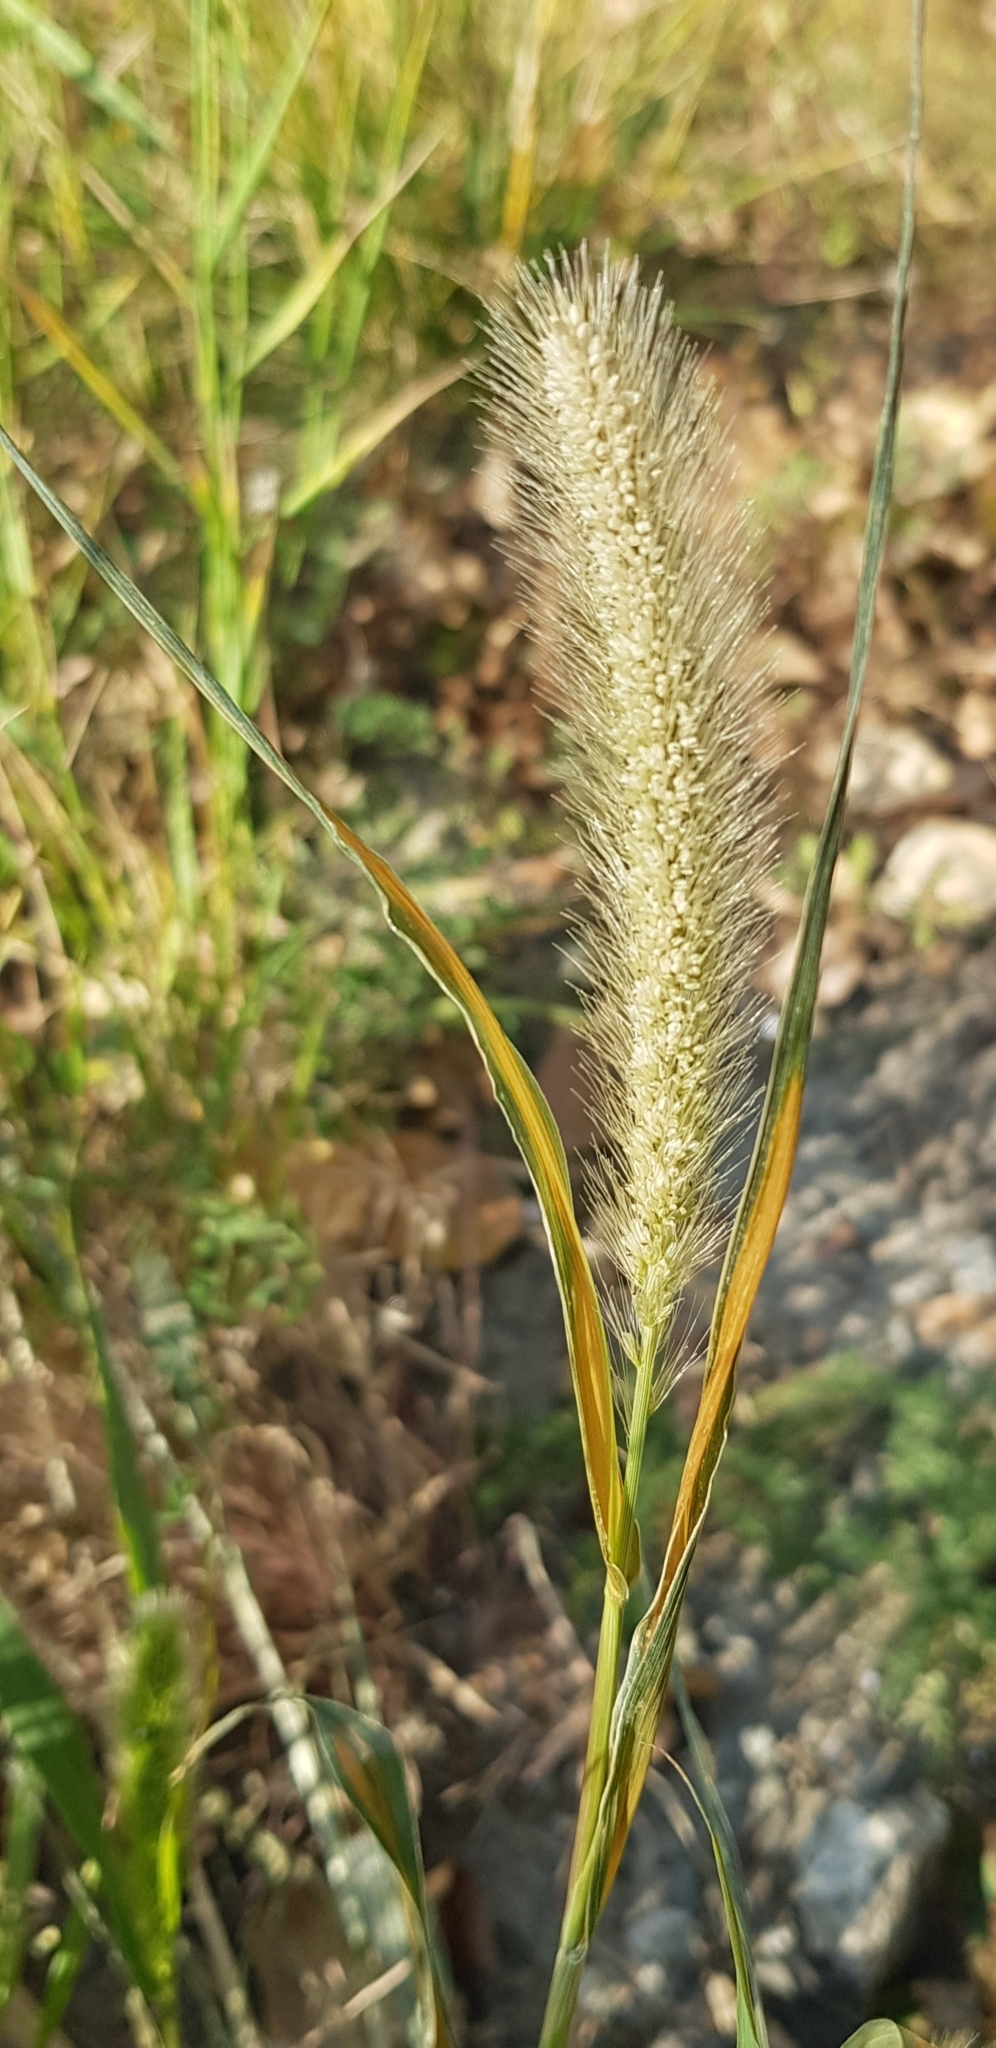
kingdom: Plantae
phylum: Tracheophyta
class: Liliopsida
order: Poales
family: Poaceae
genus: Setaria
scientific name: Setaria viridis
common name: Green bristlegrass
